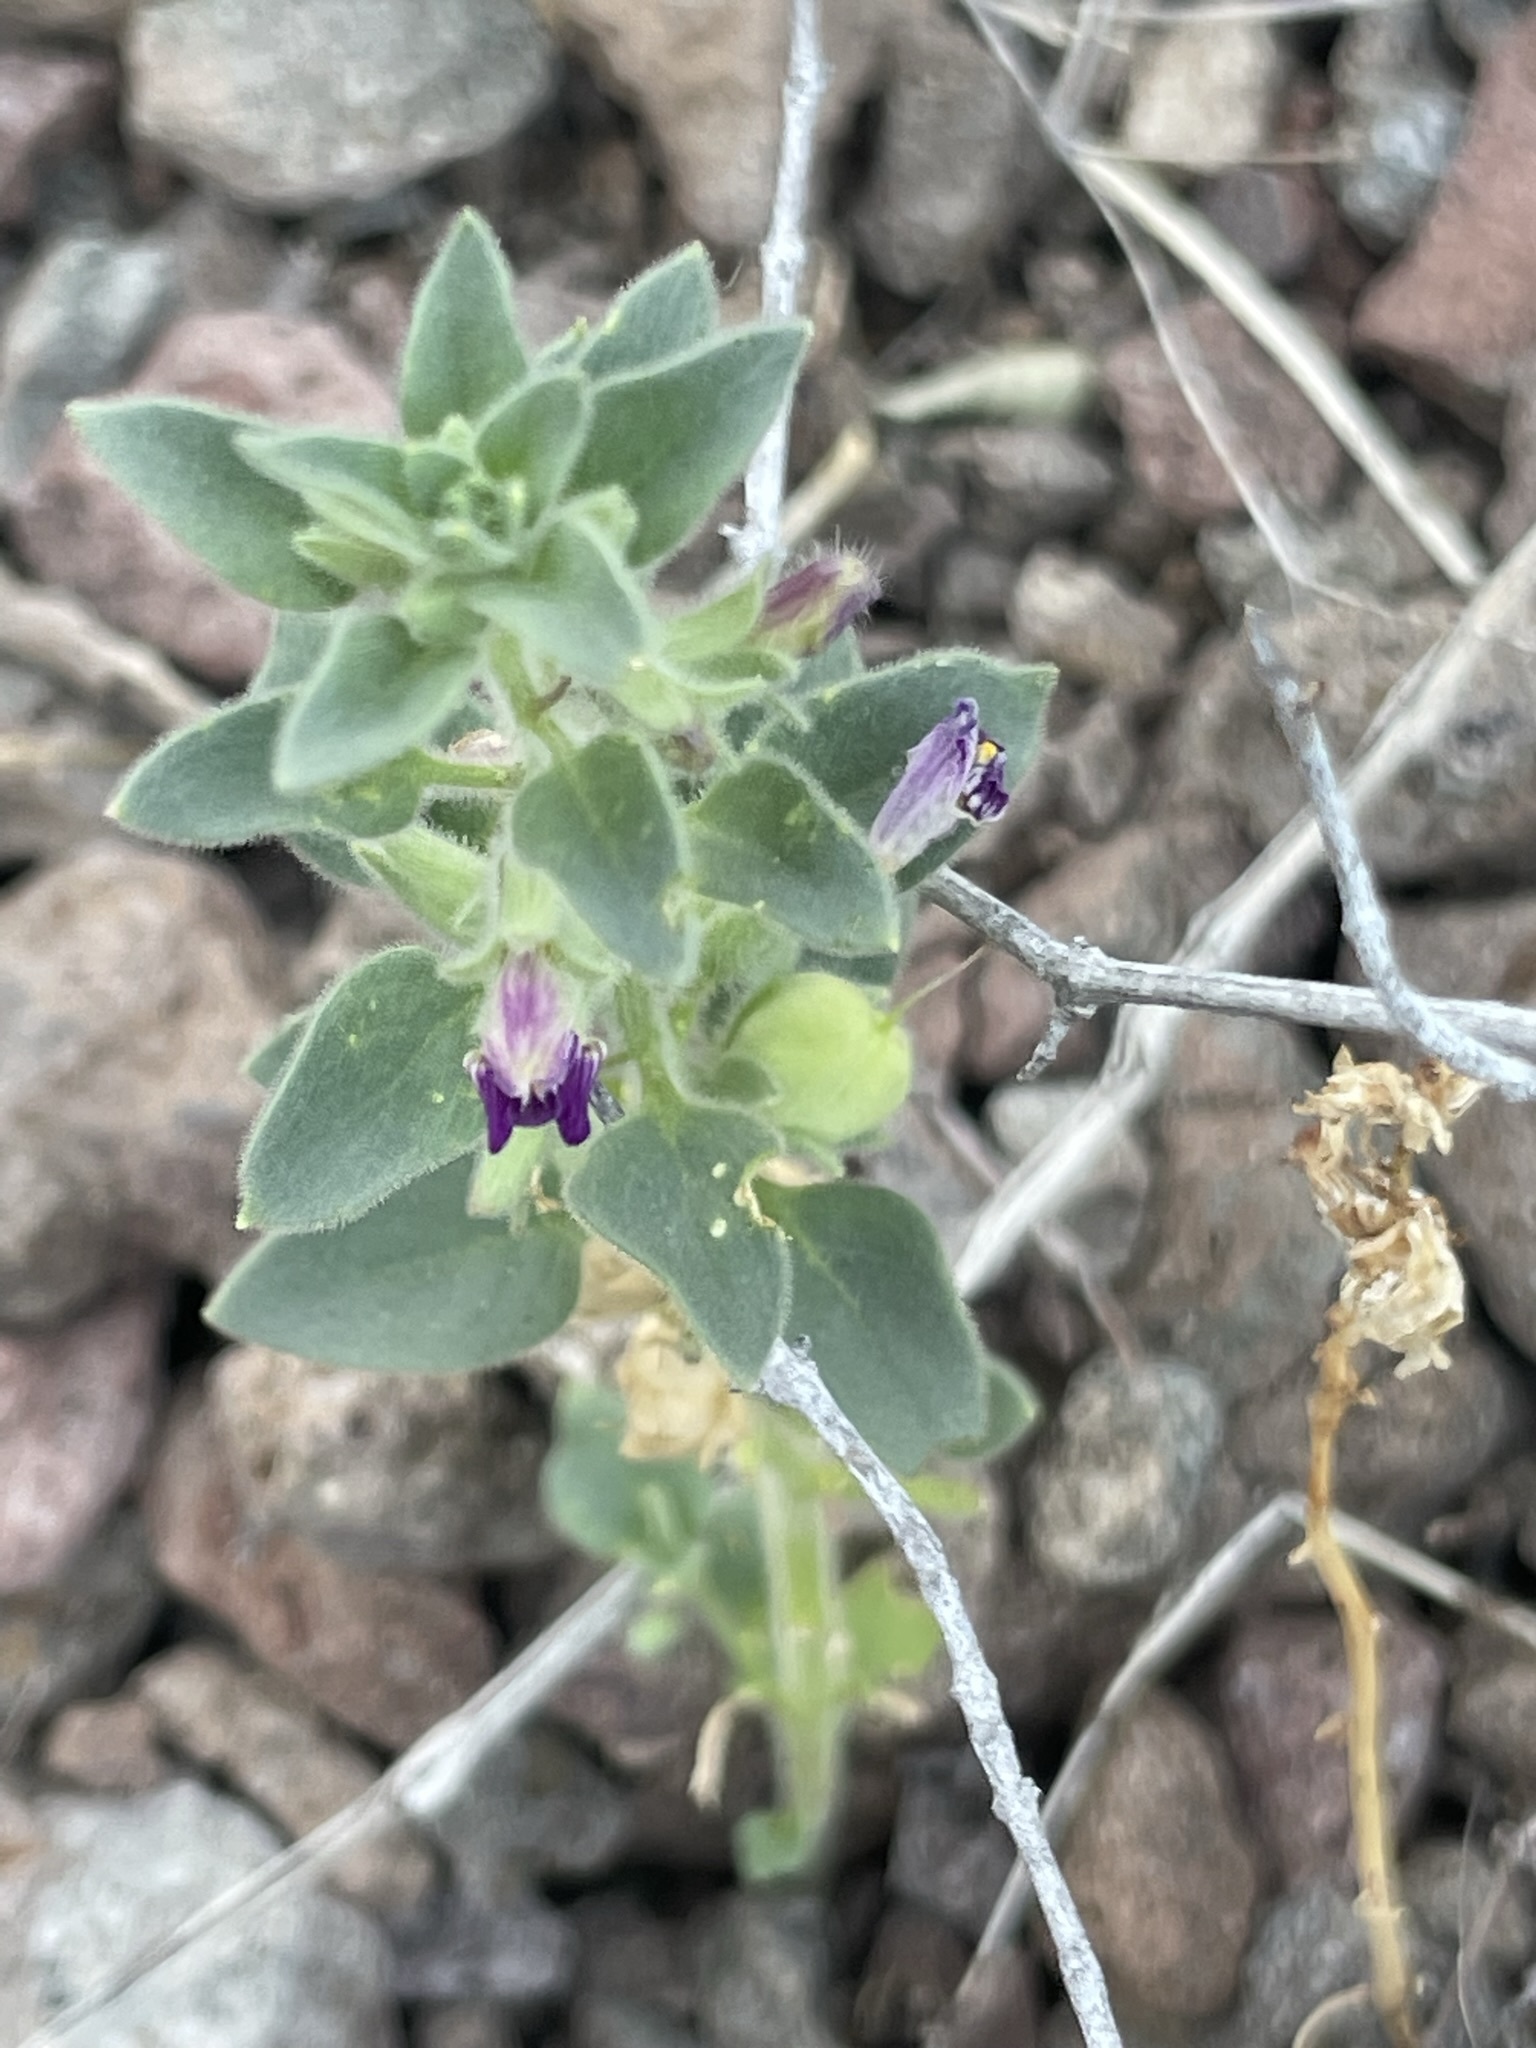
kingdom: Plantae
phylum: Tracheophyta
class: Magnoliopsida
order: Lamiales
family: Plantaginaceae
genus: Pseudorontium
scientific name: Pseudorontium cyathiferum
